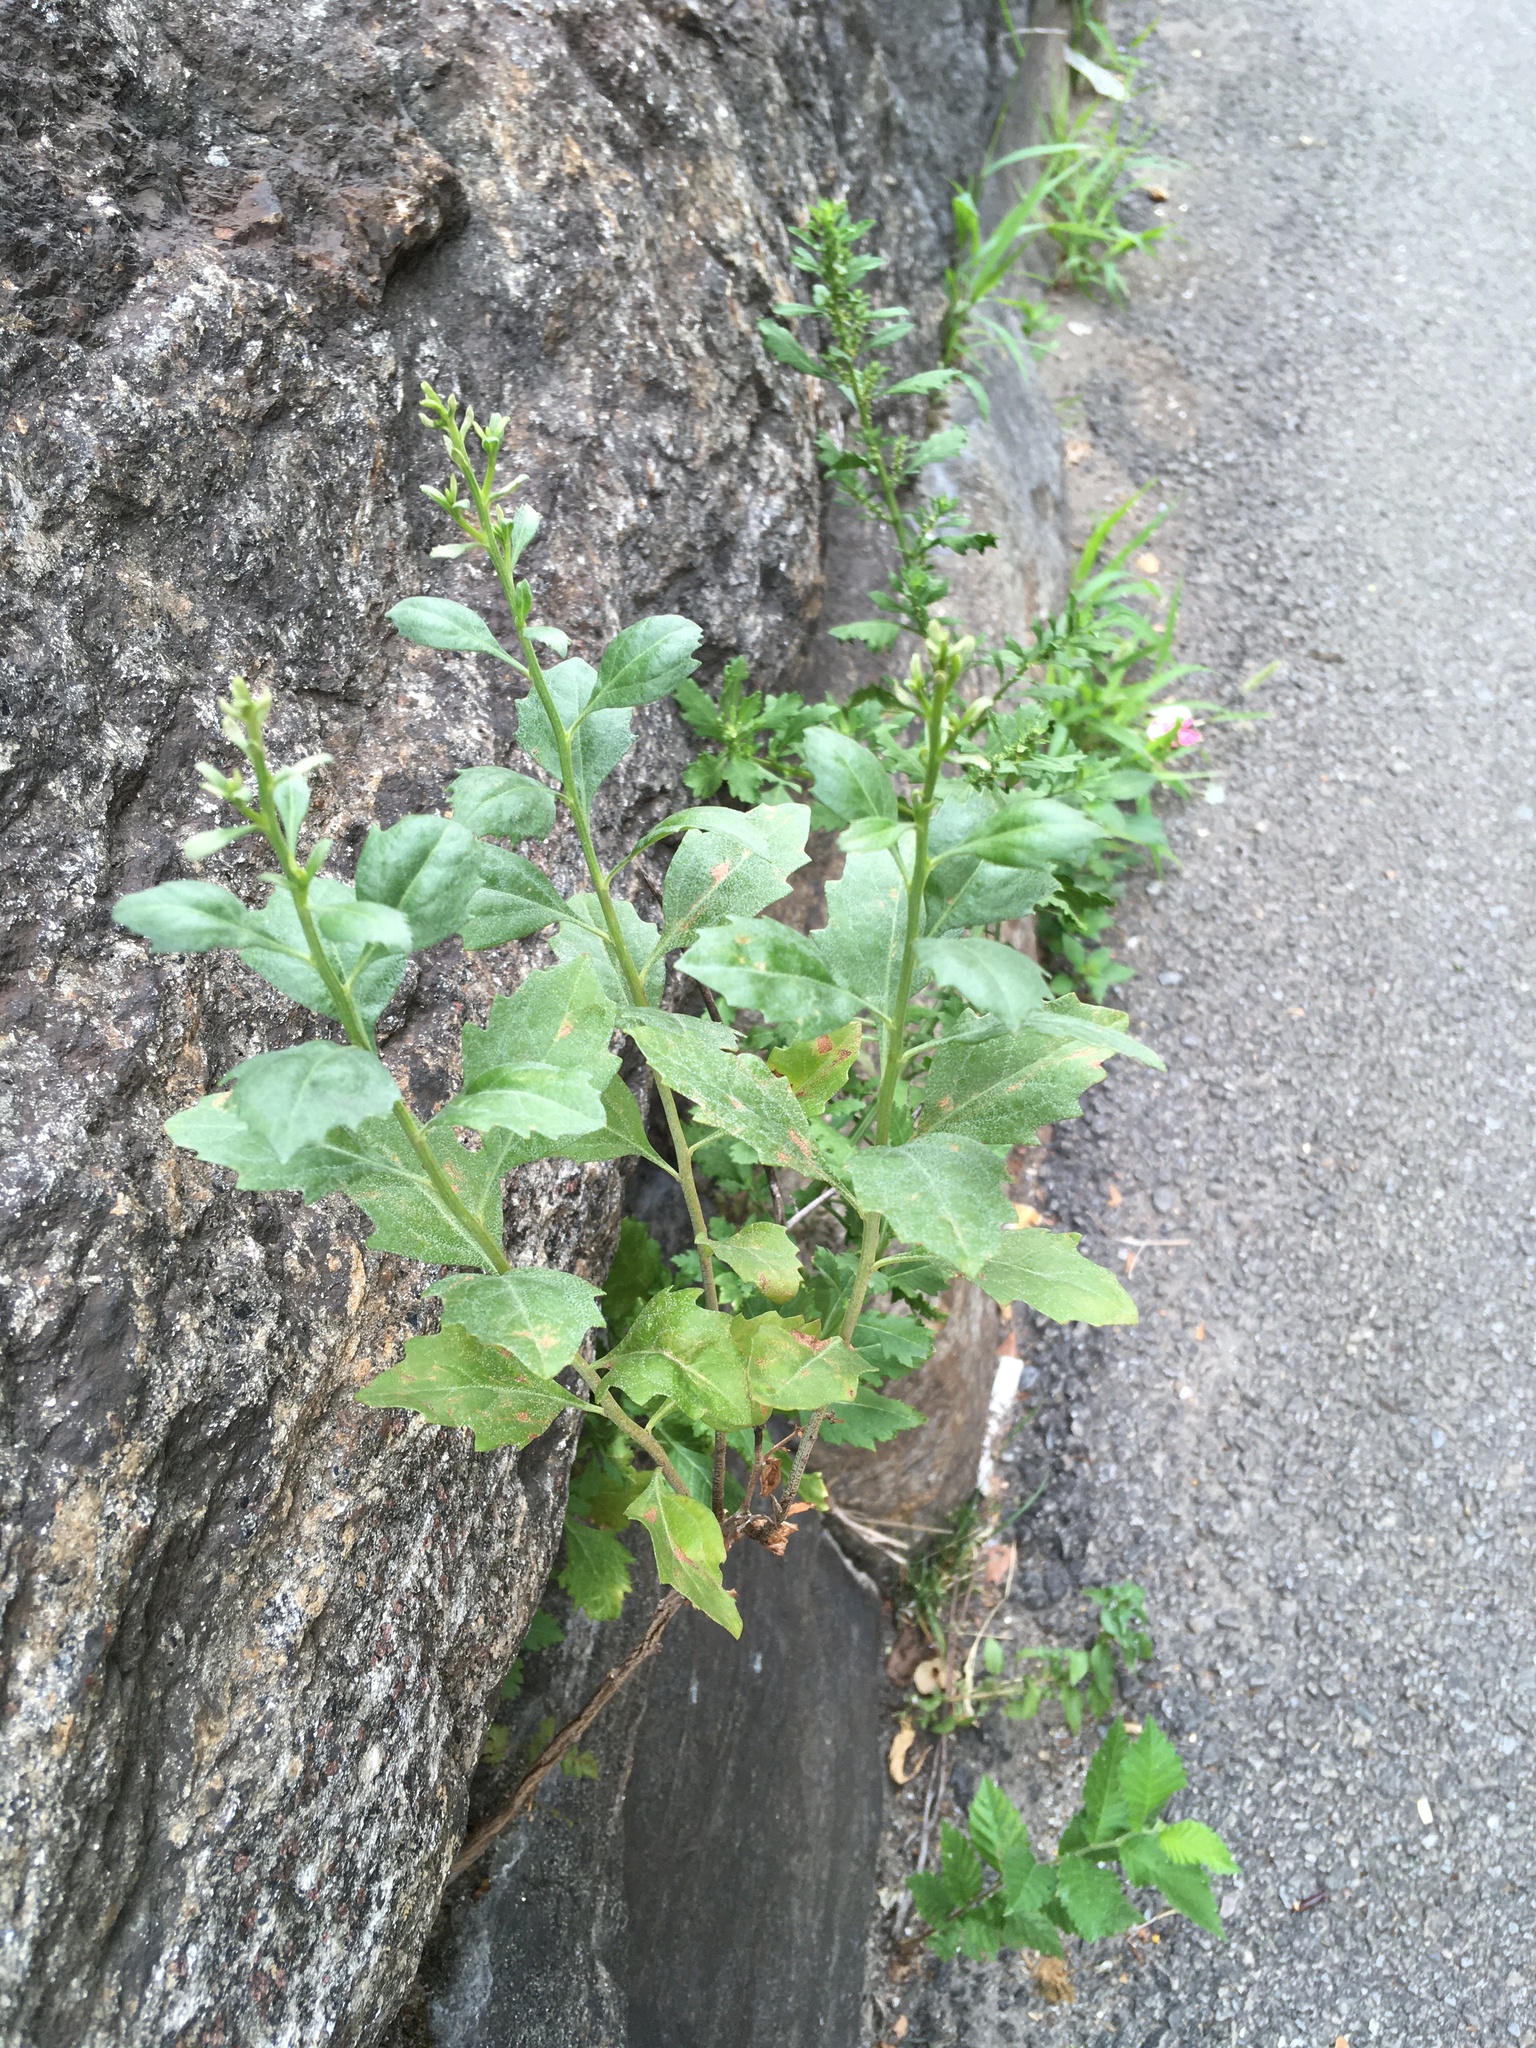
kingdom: Plantae
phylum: Tracheophyta
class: Magnoliopsida
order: Asterales
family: Asteraceae
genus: Baccharis
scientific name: Baccharis halimifolia
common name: Eastern baccharis
